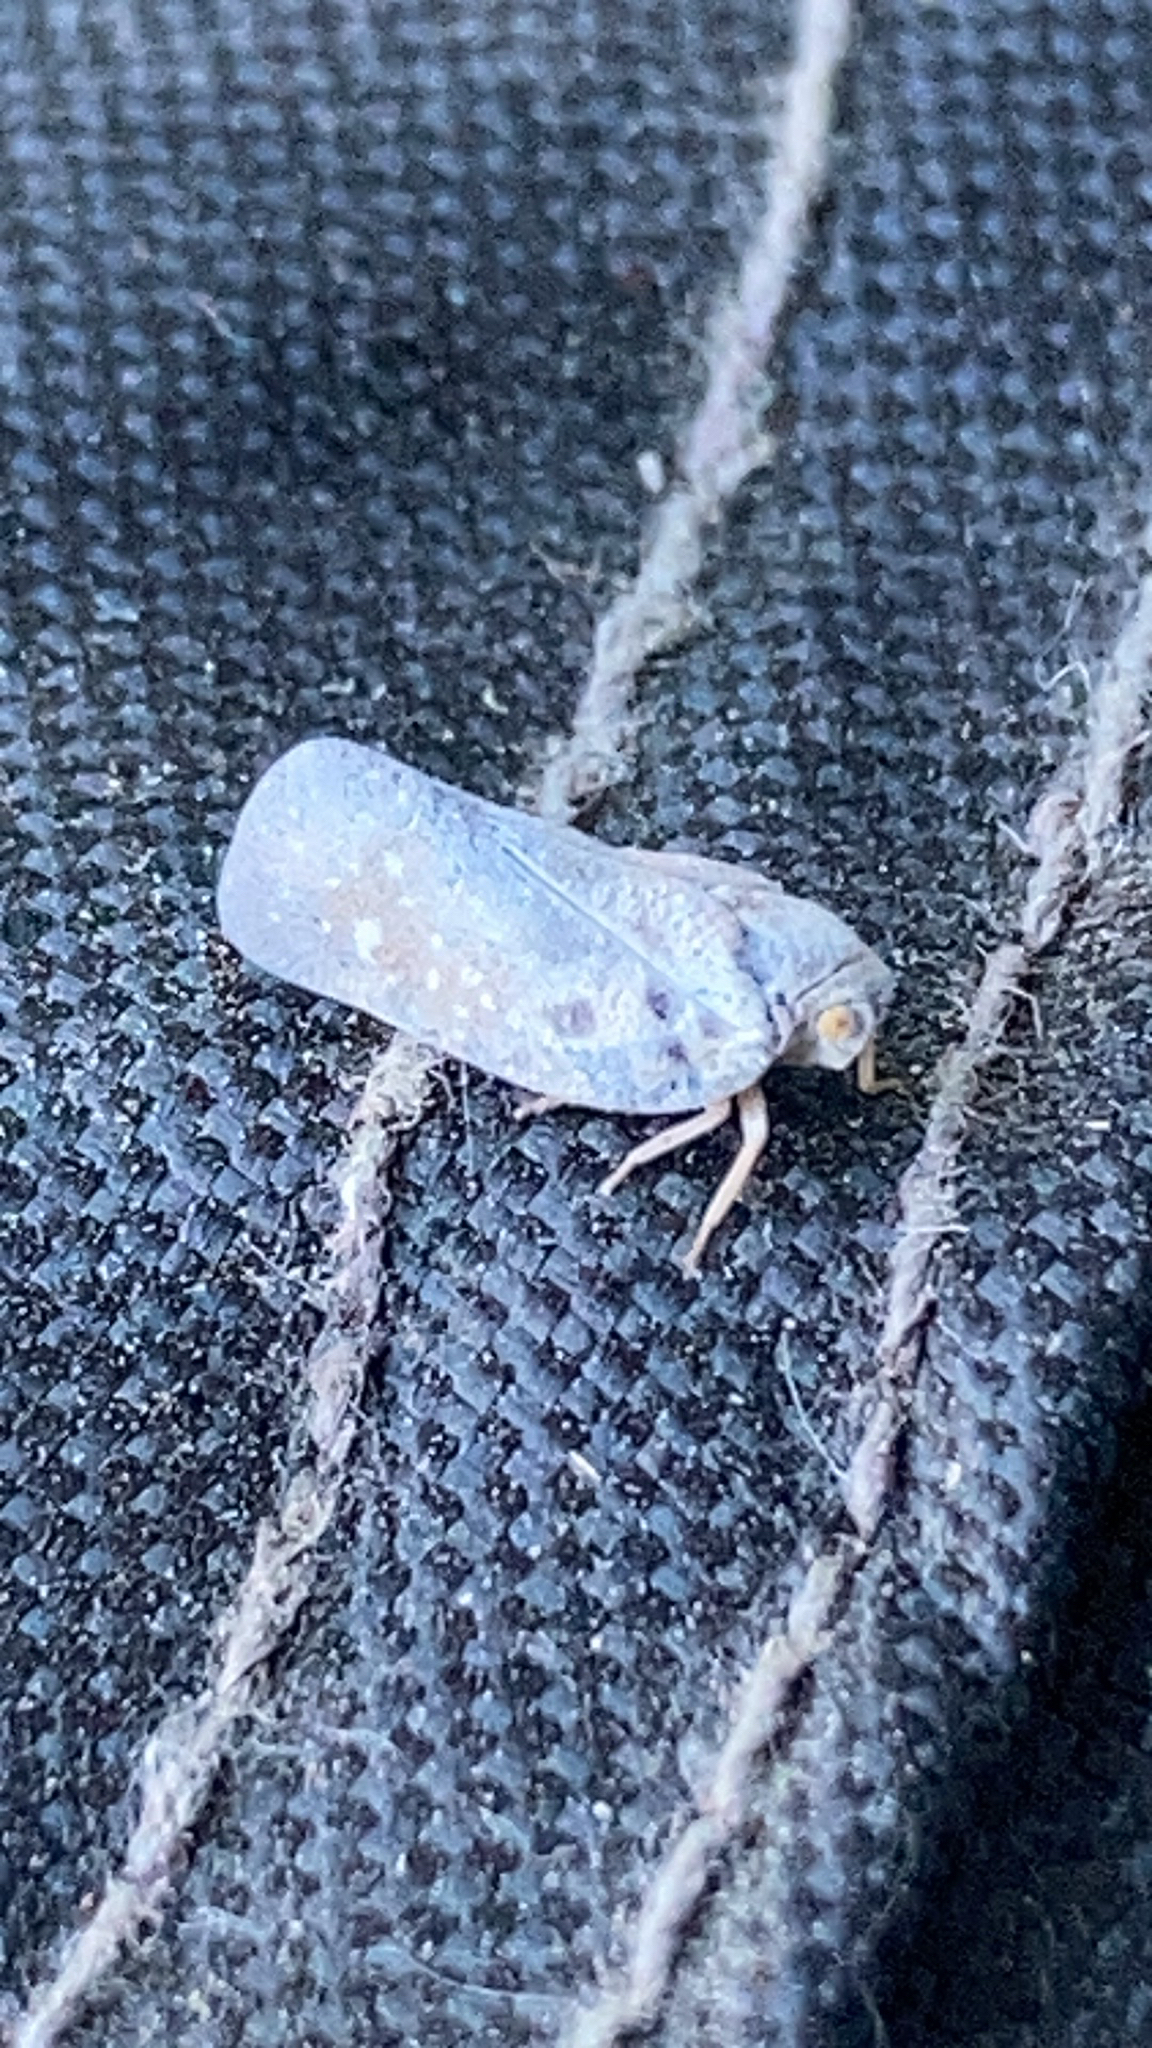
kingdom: Animalia
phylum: Arthropoda
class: Insecta
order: Hemiptera
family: Flatidae
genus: Metcalfa
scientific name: Metcalfa pruinosa
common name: Citrus flatid planthopper
